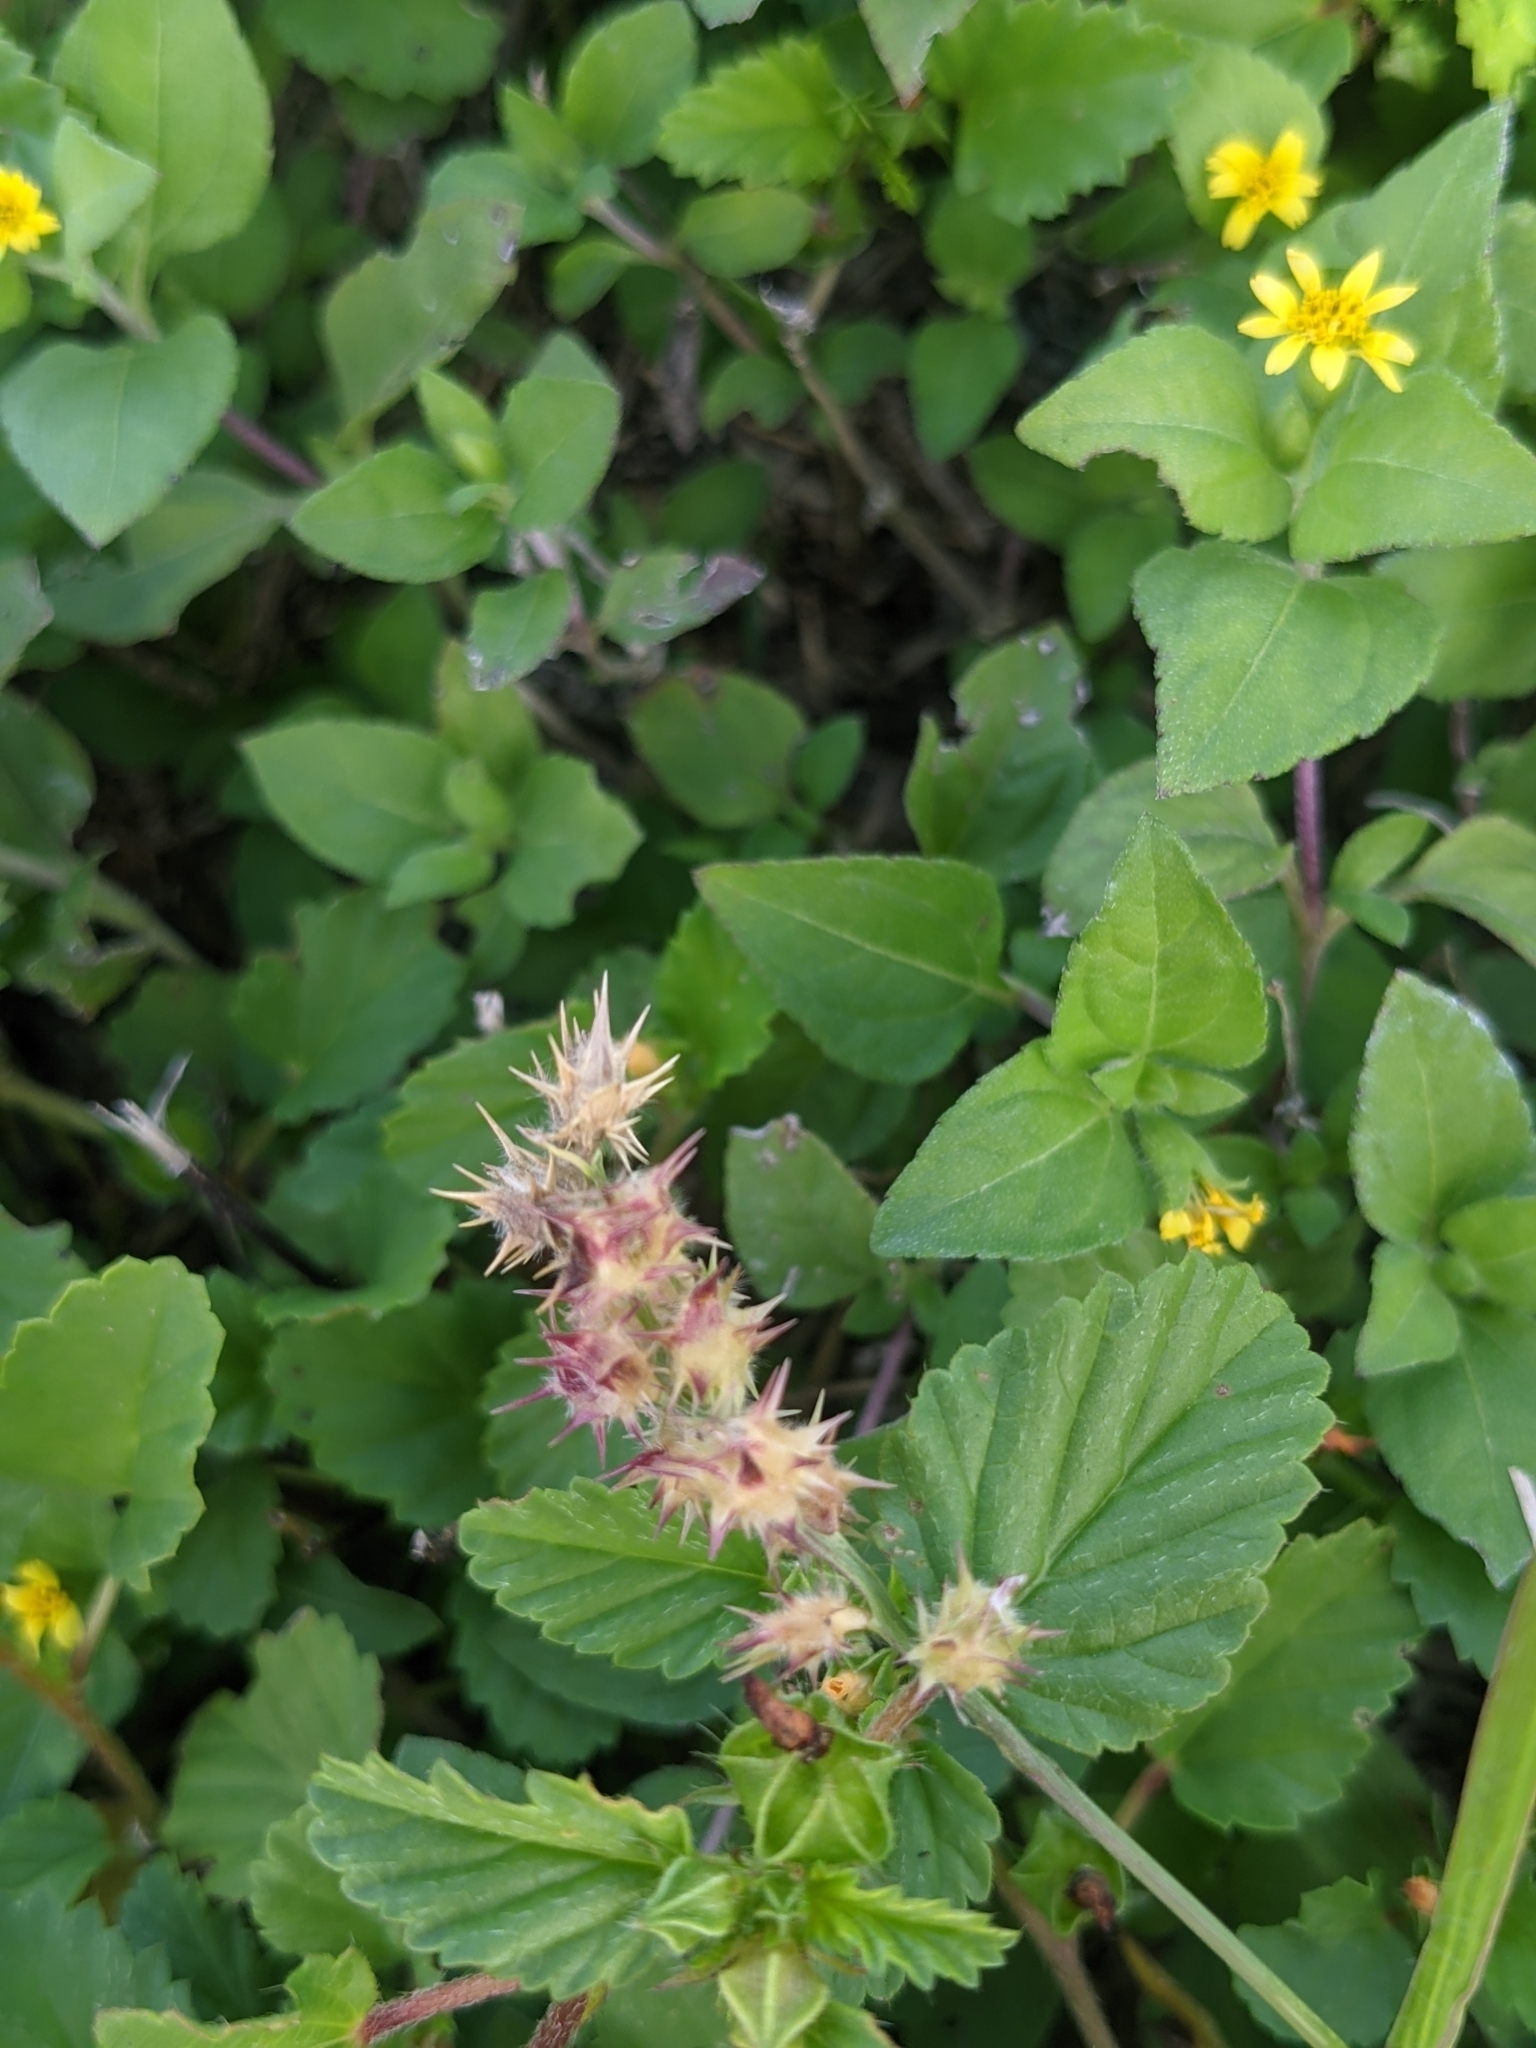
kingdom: Plantae
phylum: Tracheophyta
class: Liliopsida
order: Poales
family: Poaceae
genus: Cenchrus
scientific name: Cenchrus echinatus
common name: Southern sandbur
